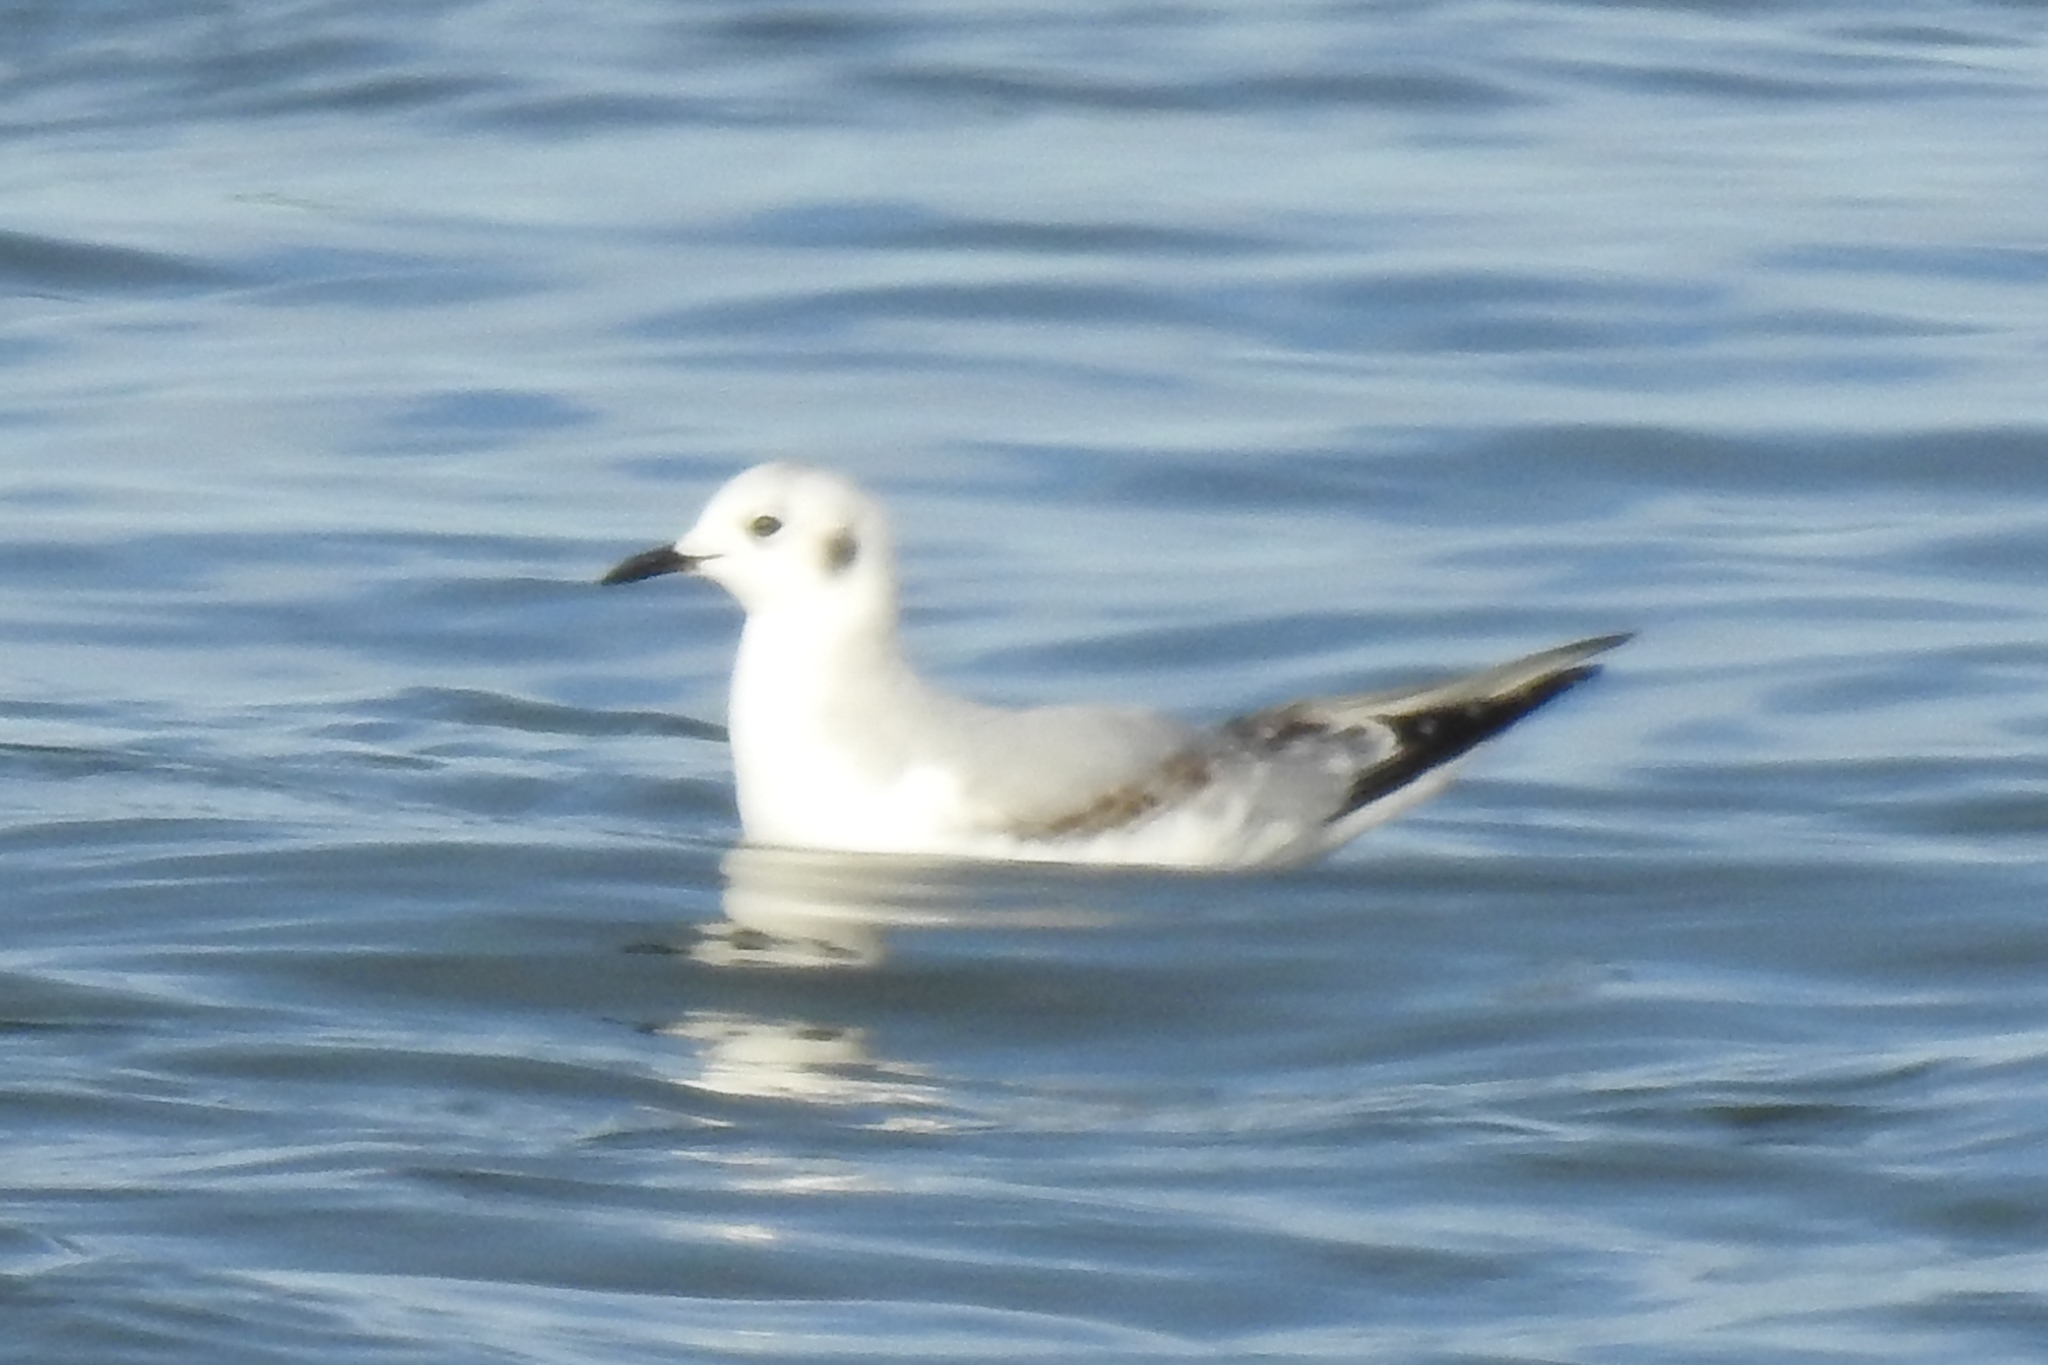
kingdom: Animalia
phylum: Chordata
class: Aves
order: Charadriiformes
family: Laridae
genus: Chroicocephalus
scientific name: Chroicocephalus philadelphia
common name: Bonaparte's gull
